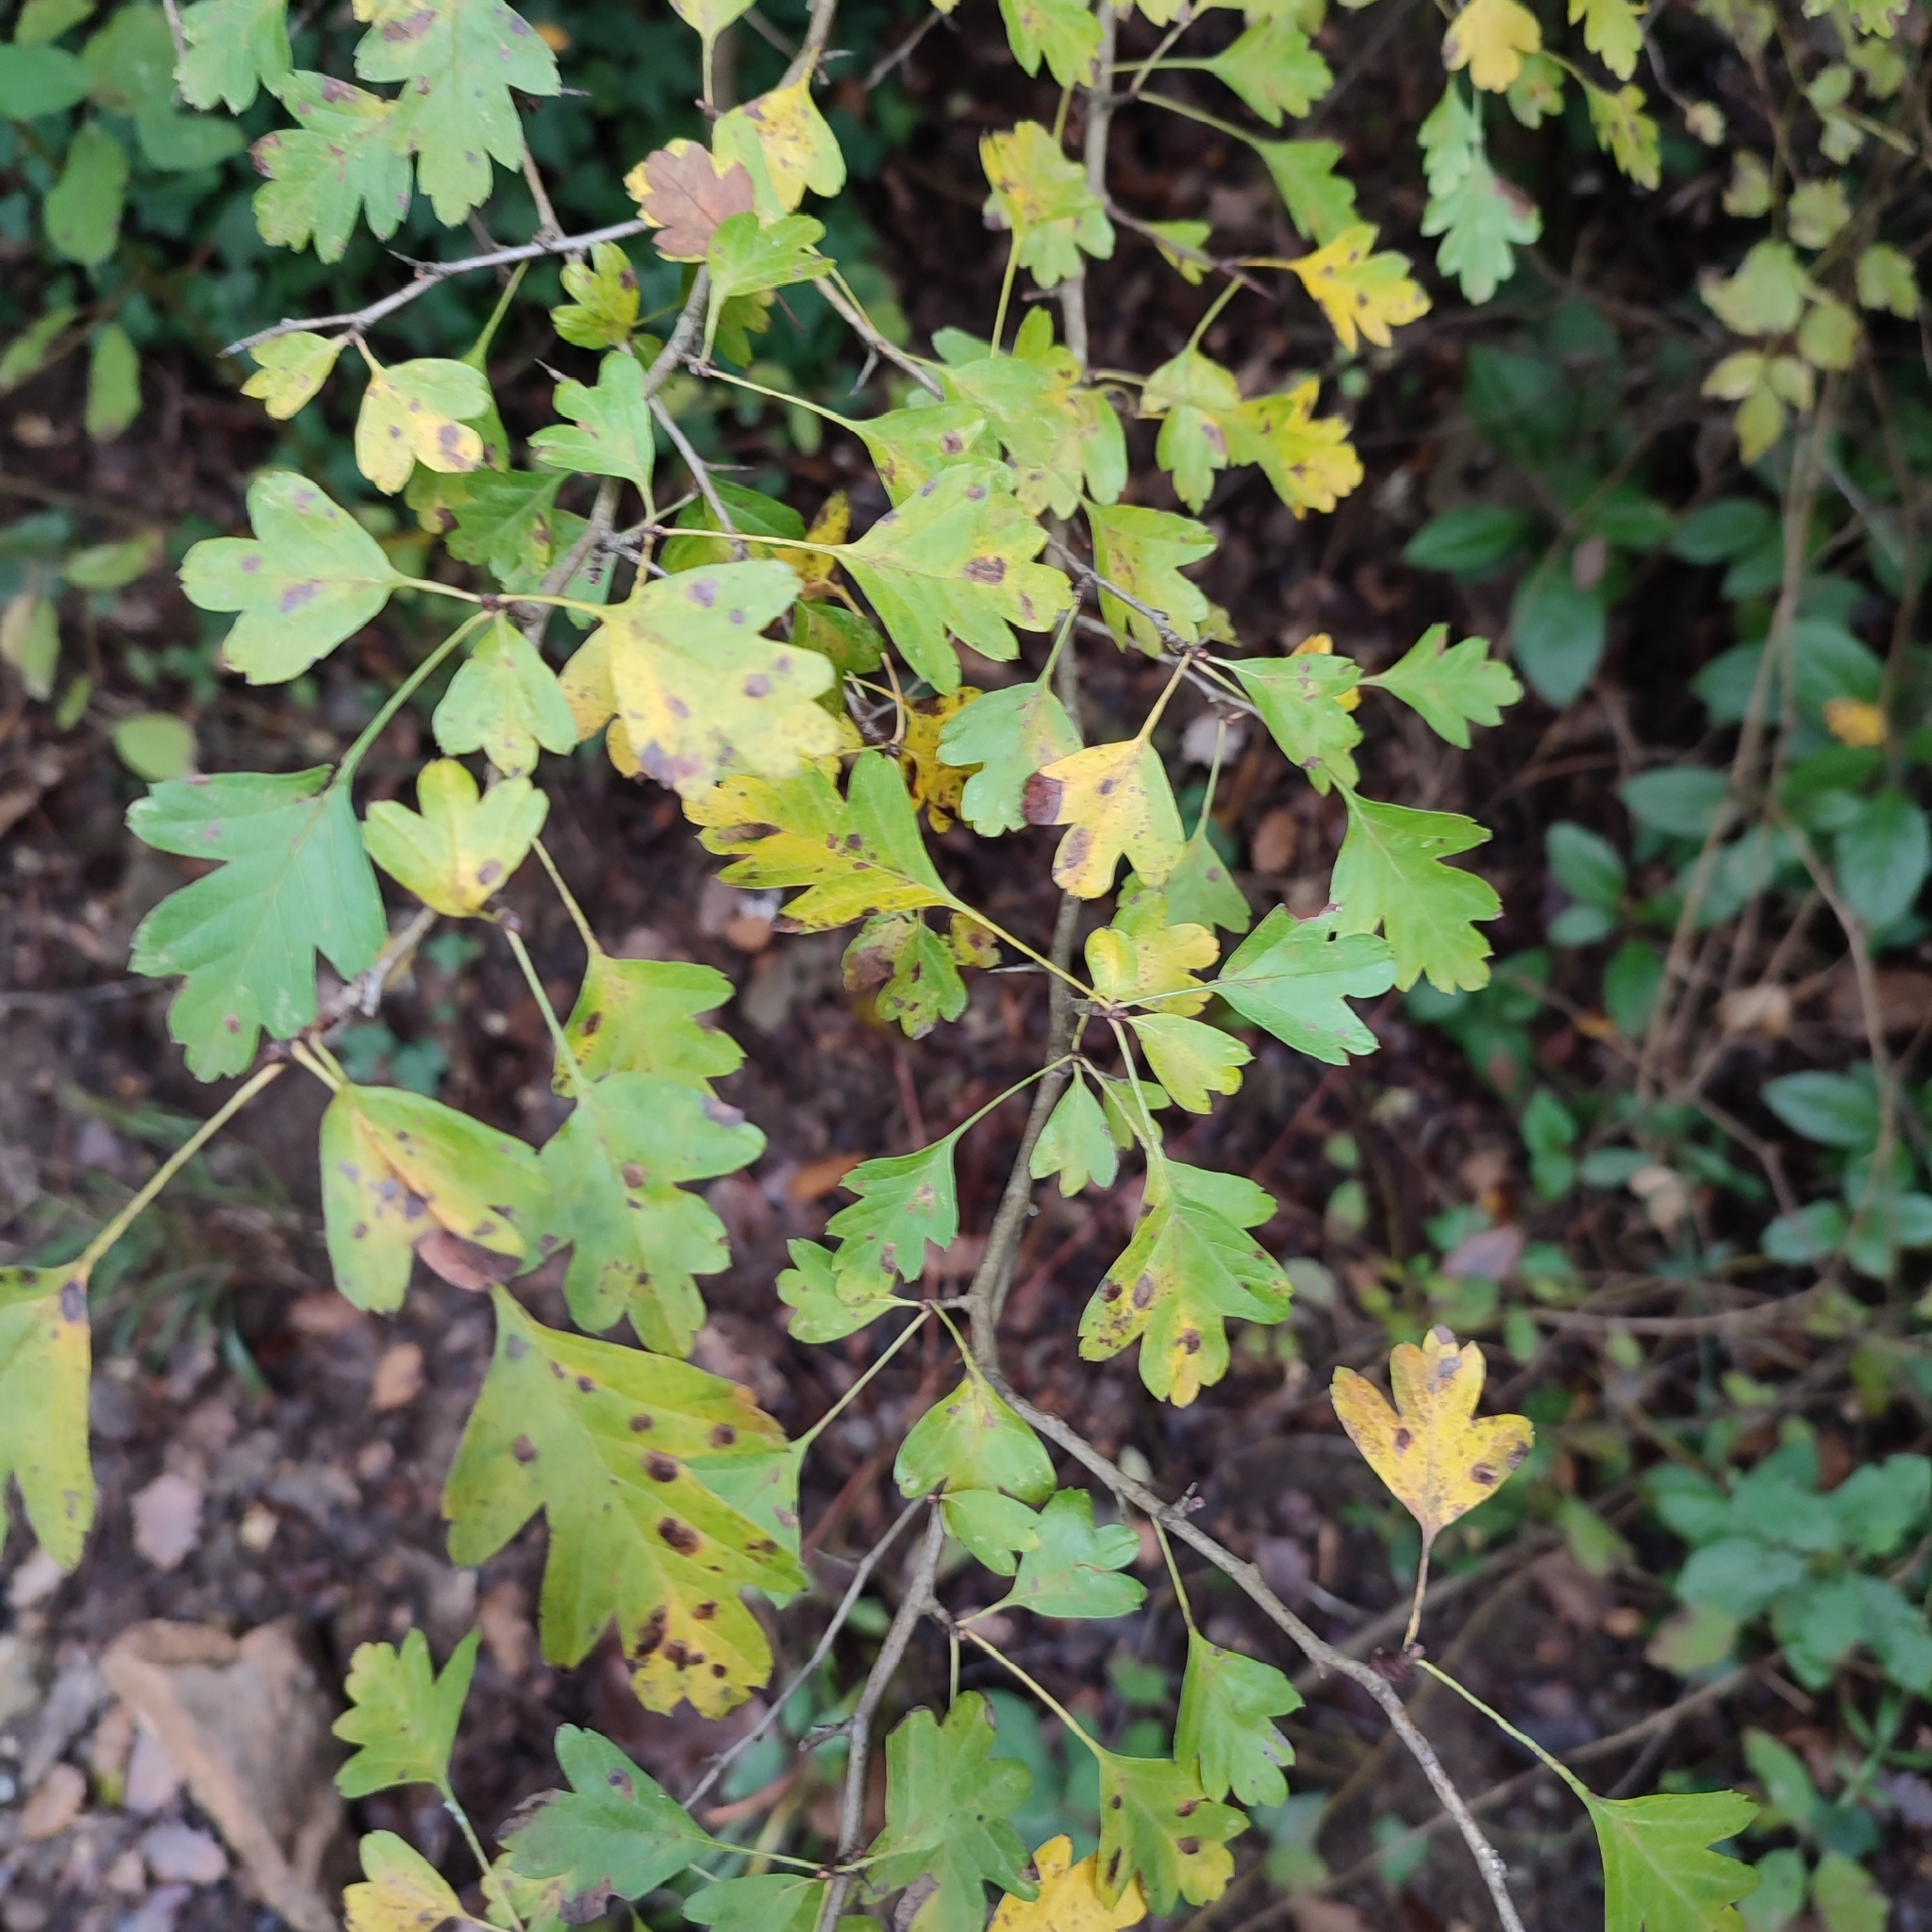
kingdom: Plantae
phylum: Tracheophyta
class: Magnoliopsida
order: Rosales
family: Rosaceae
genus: Crataegus
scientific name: Crataegus monogyna
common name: Hawthorn
